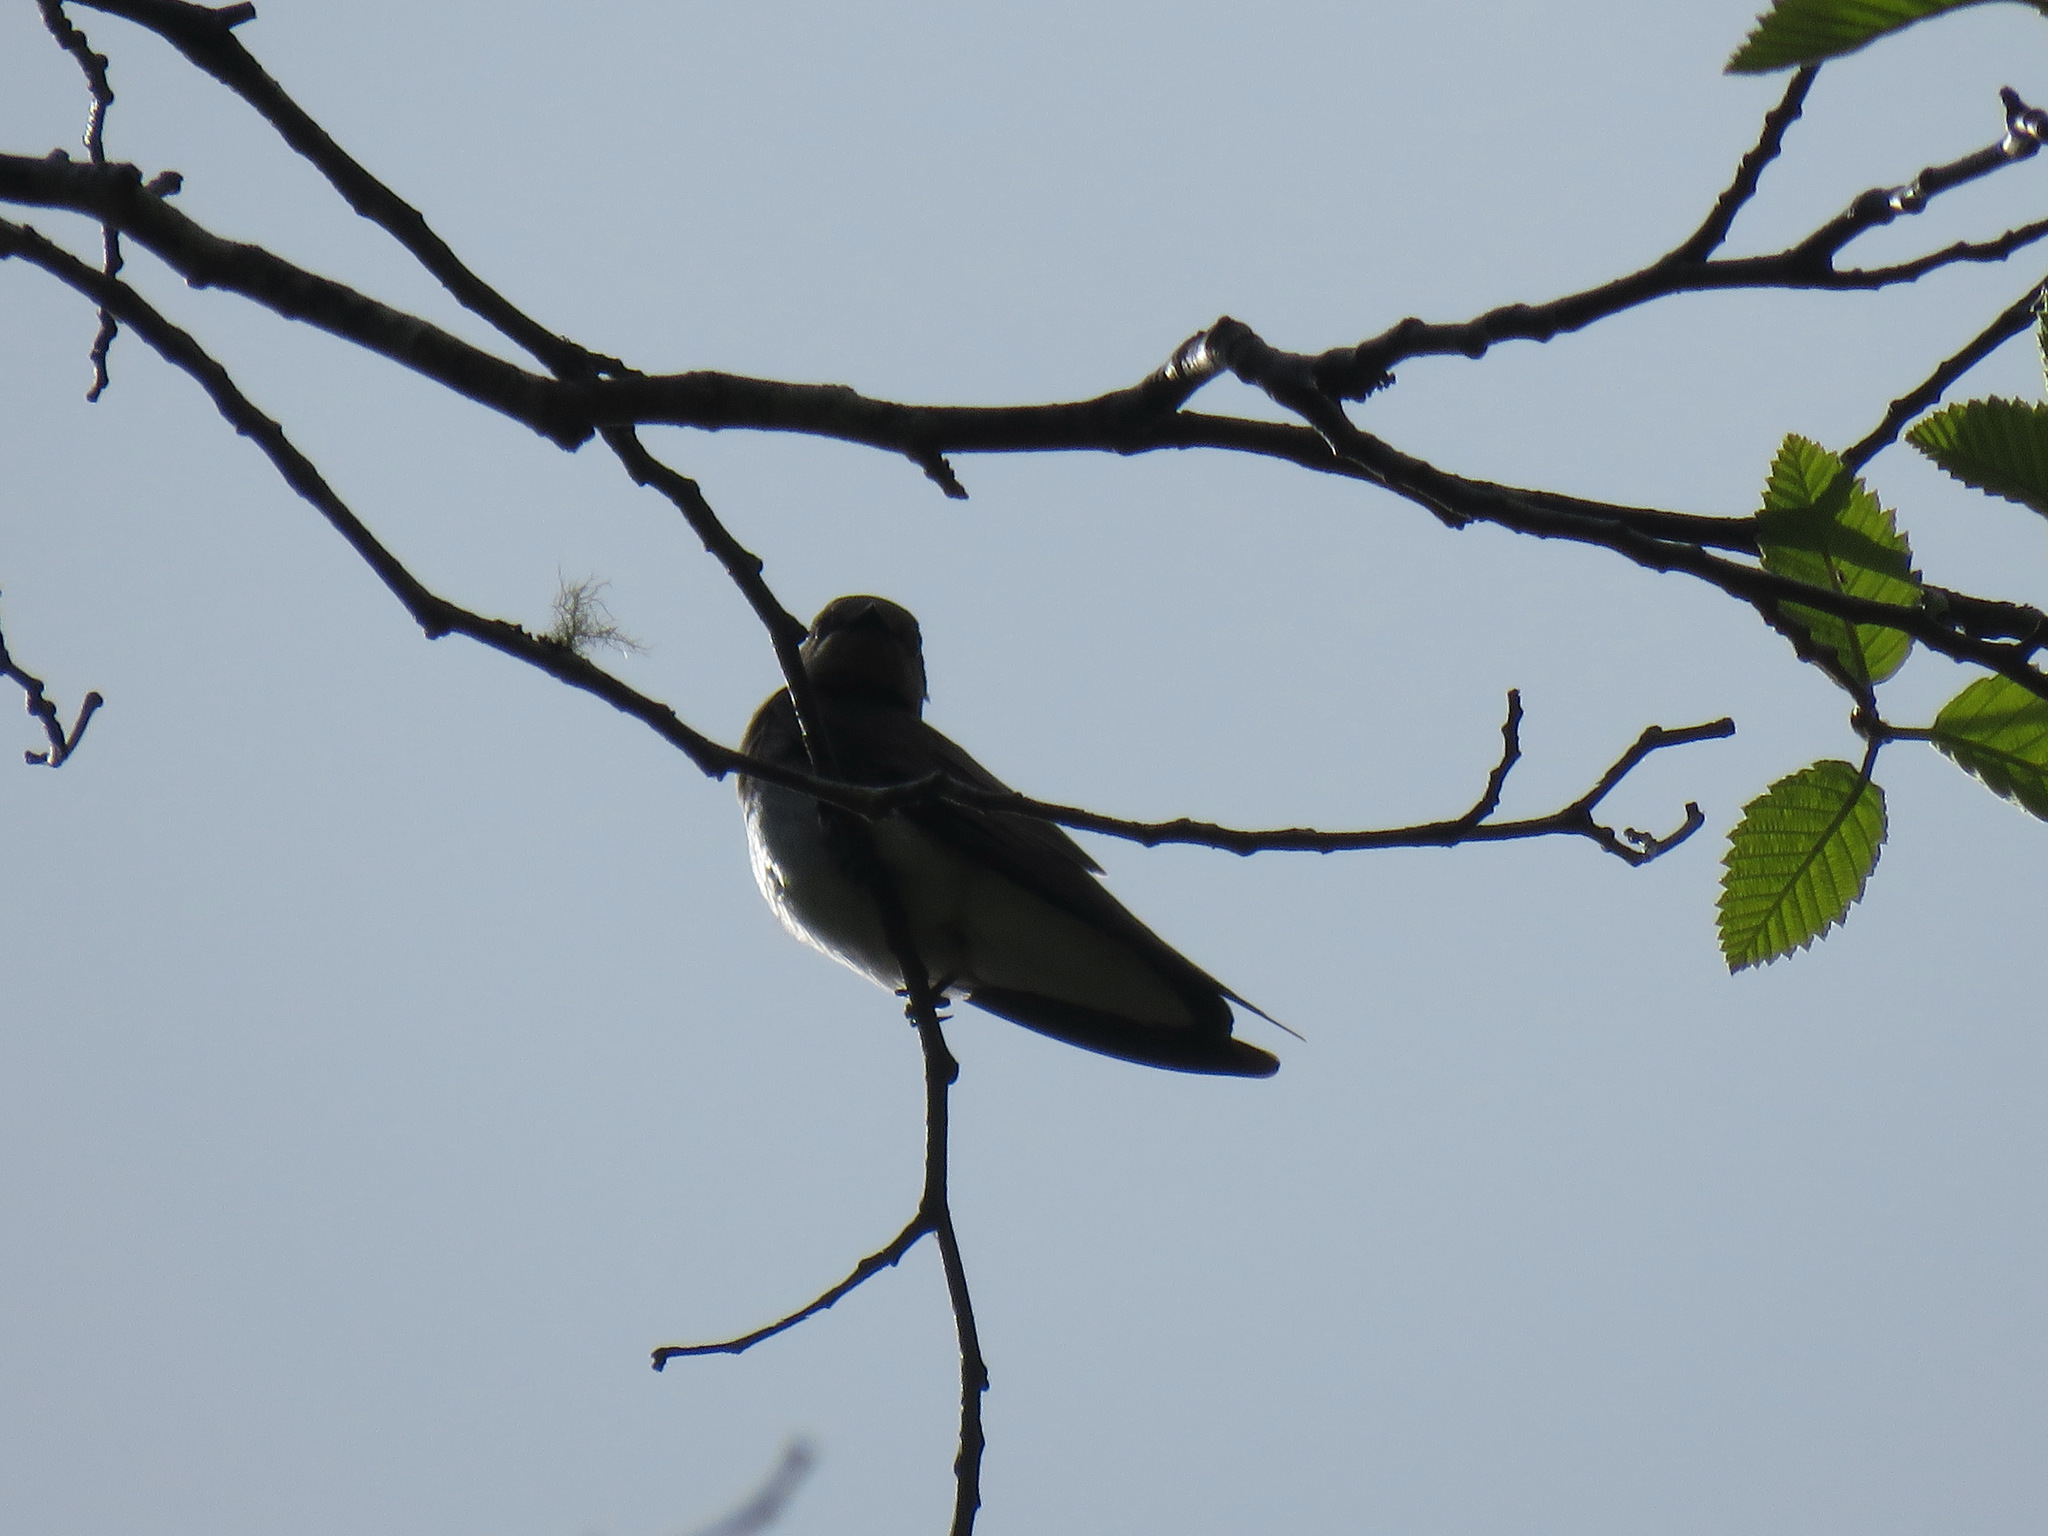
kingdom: Animalia
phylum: Chordata
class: Aves
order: Passeriformes
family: Hirundinidae
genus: Stelgidopteryx
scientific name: Stelgidopteryx serripennis
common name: Northern rough-winged swallow
